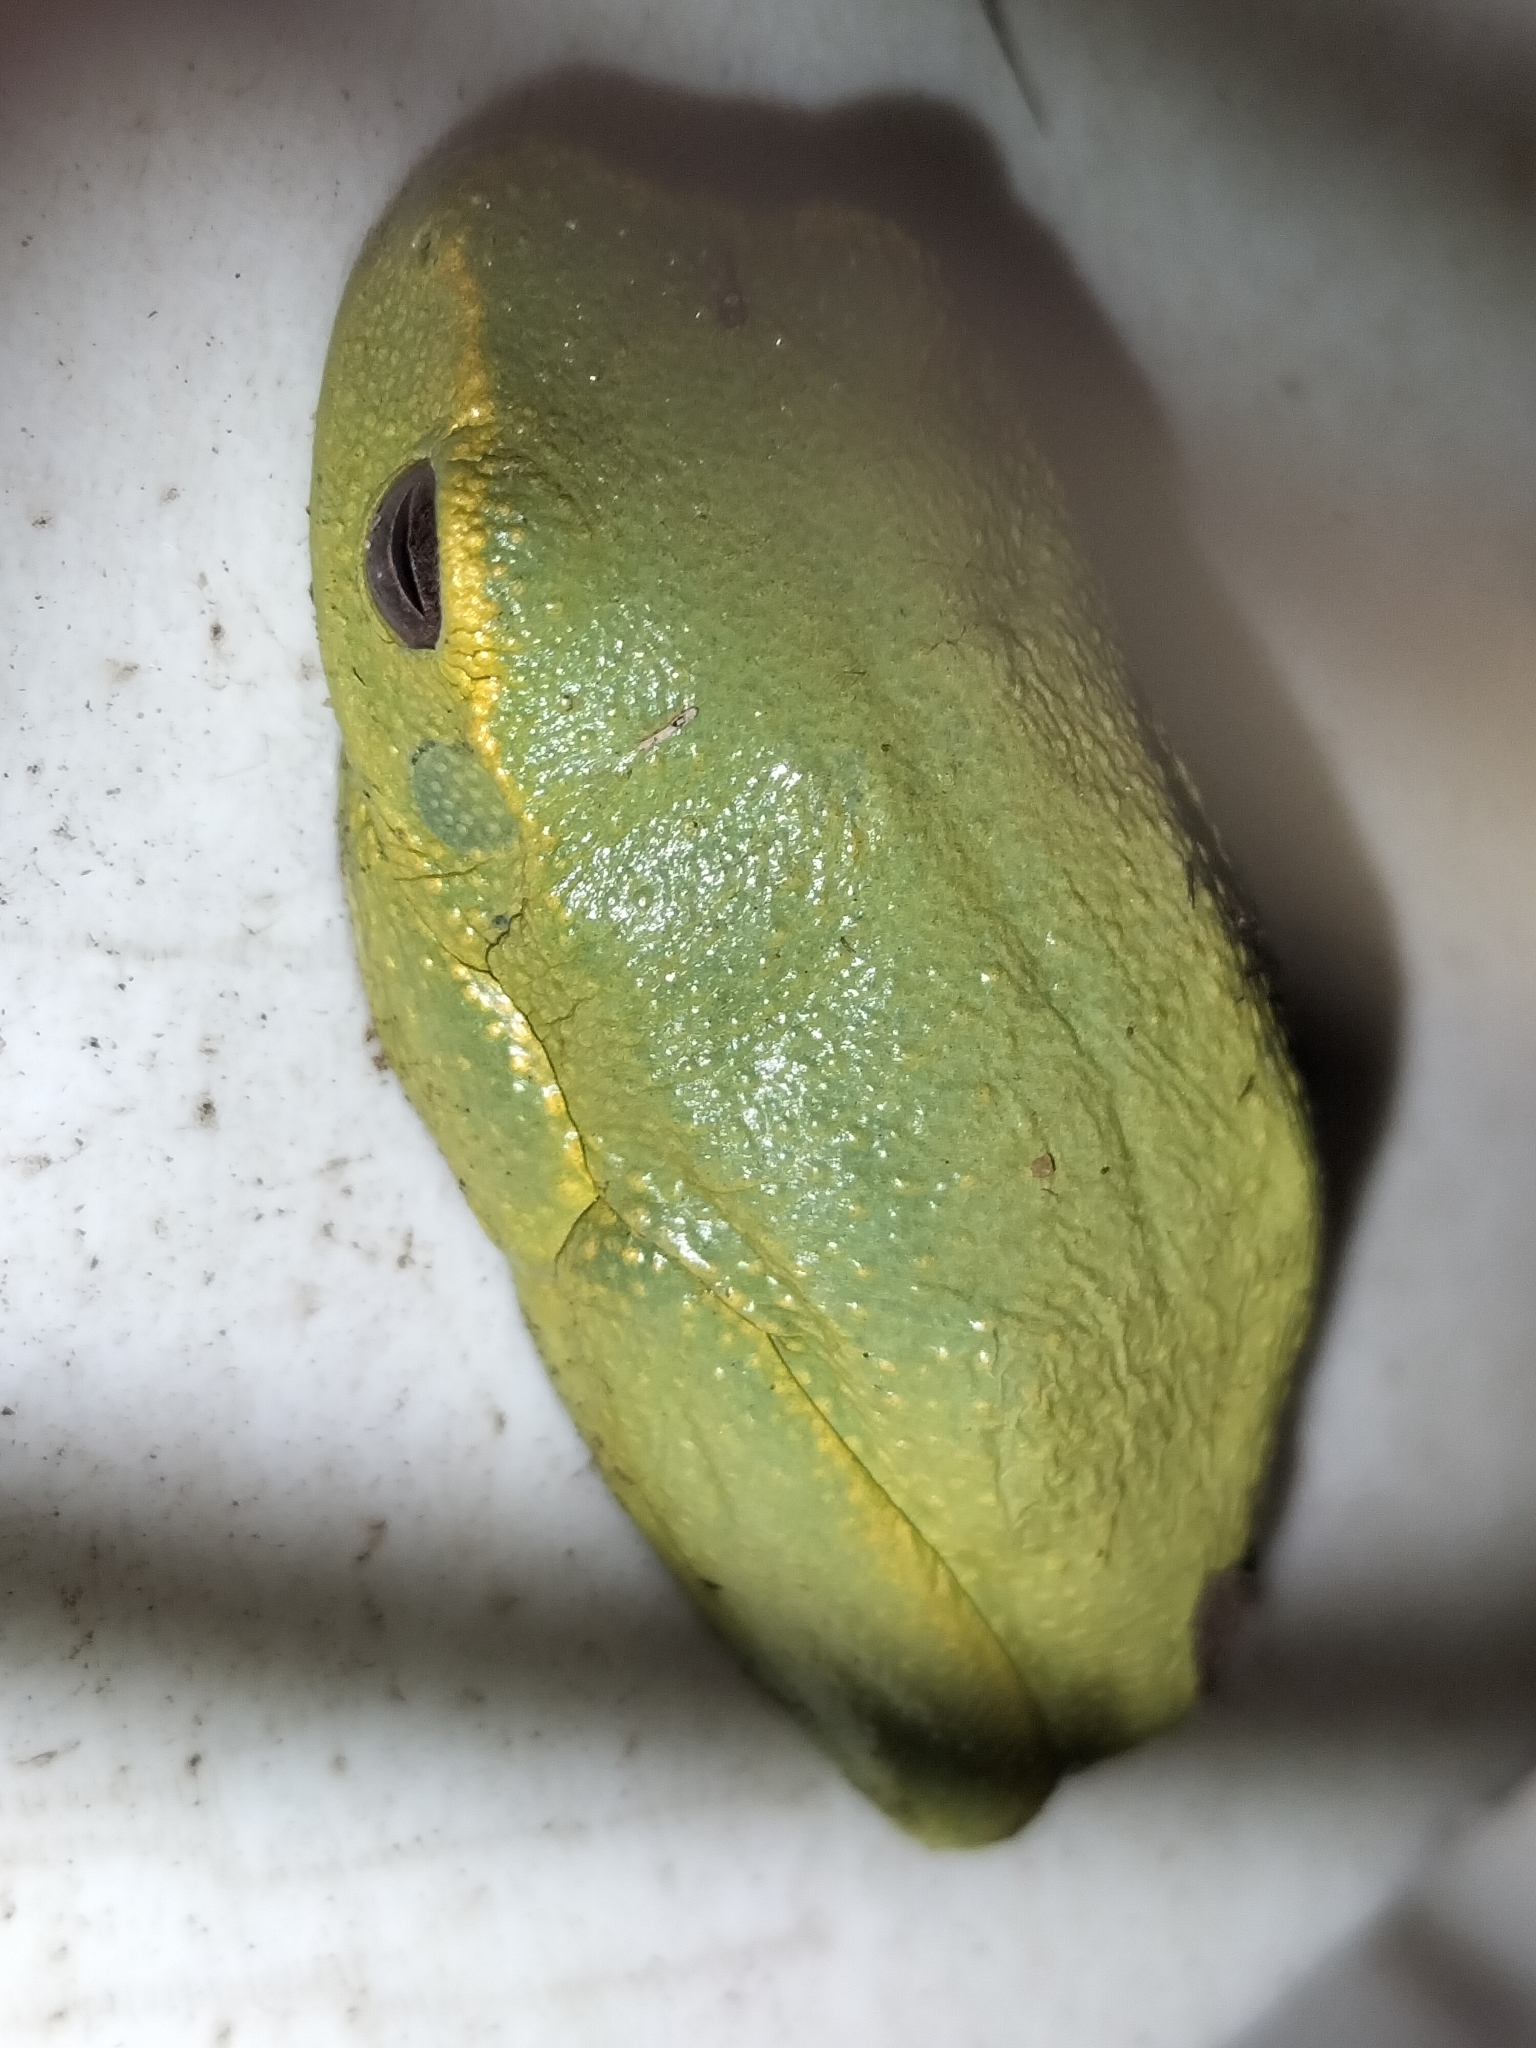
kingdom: Animalia
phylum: Chordata
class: Amphibia
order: Anura
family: Pelodryadidae
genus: Ranoidea
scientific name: Ranoidea gracilenta
